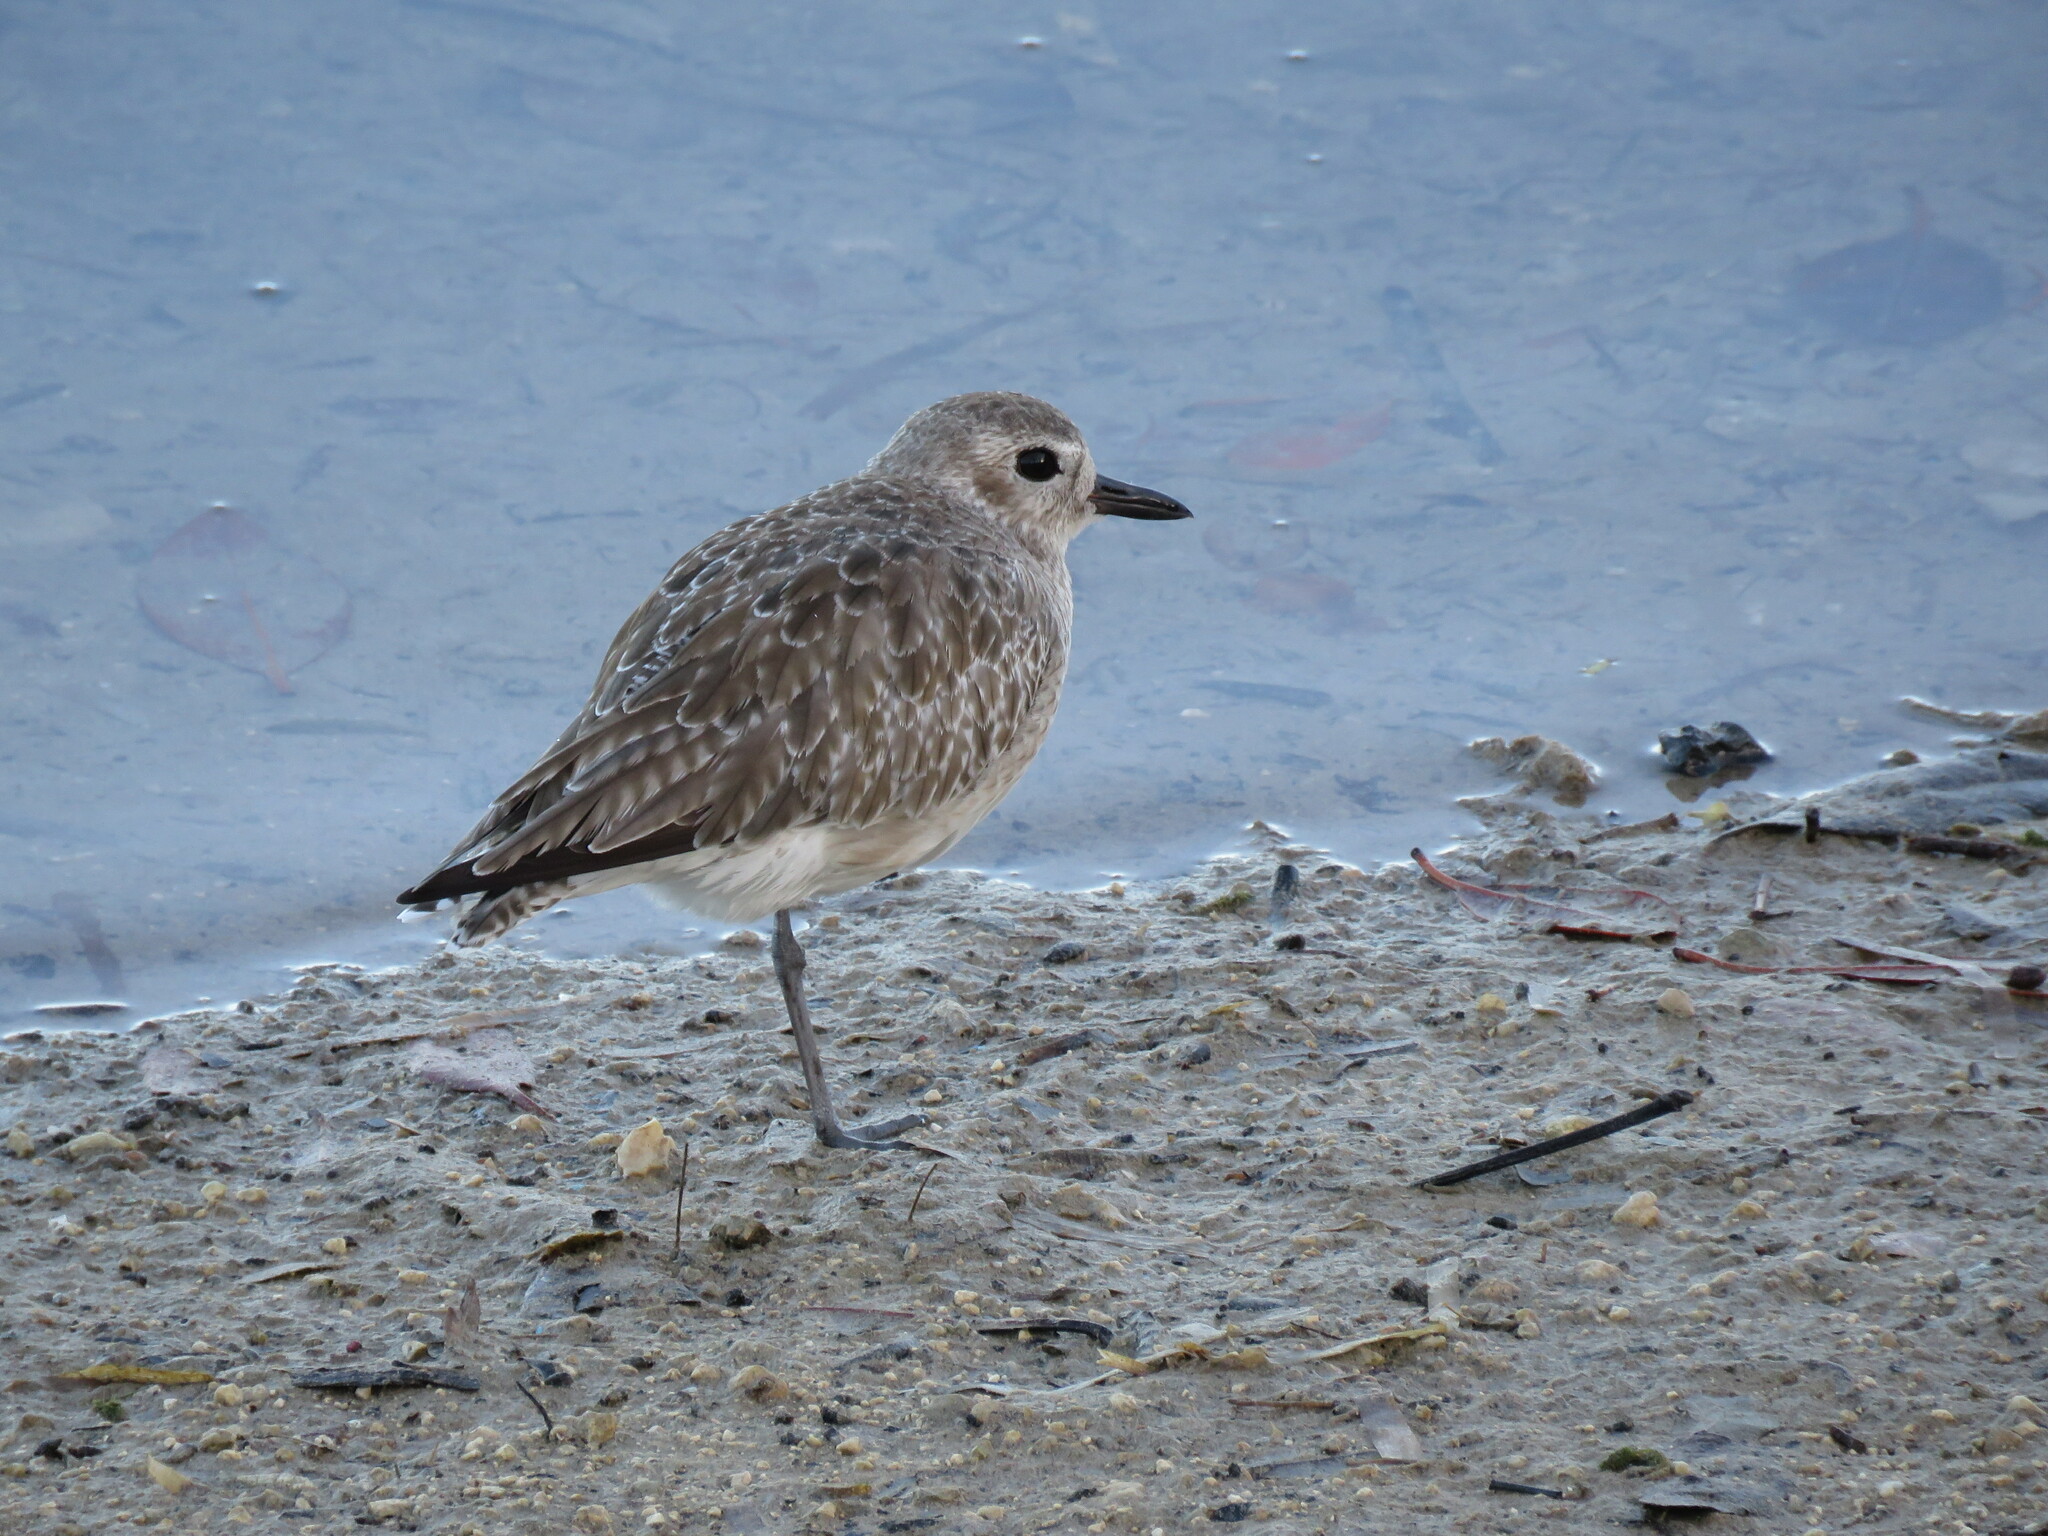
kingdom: Animalia
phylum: Chordata
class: Aves
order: Charadriiformes
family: Charadriidae
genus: Pluvialis
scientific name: Pluvialis squatarola
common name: Grey plover
